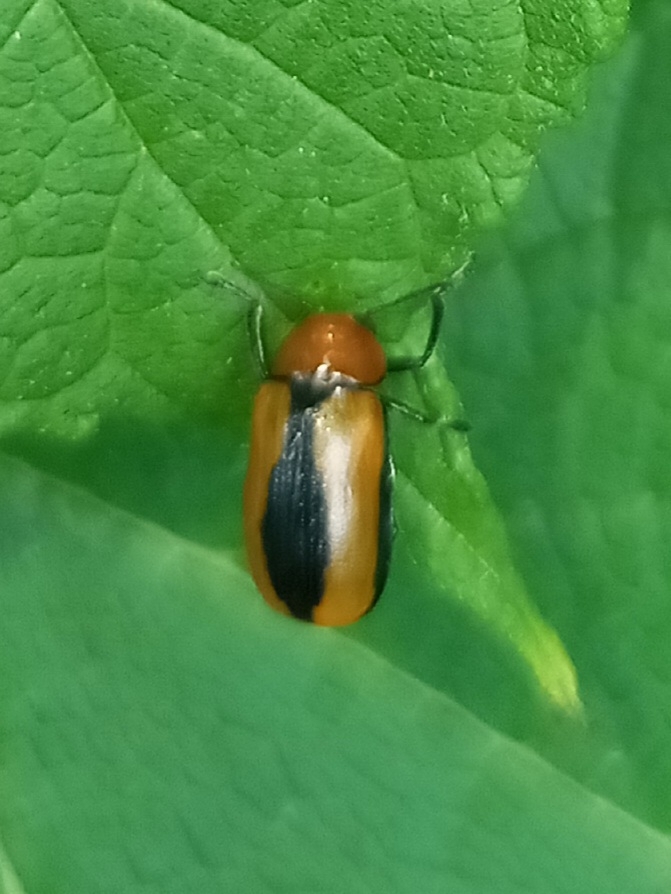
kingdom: Animalia
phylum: Arthropoda
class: Insecta
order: Coleoptera
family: Chrysomelidae
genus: Anomoea
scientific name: Anomoea laticlavia
